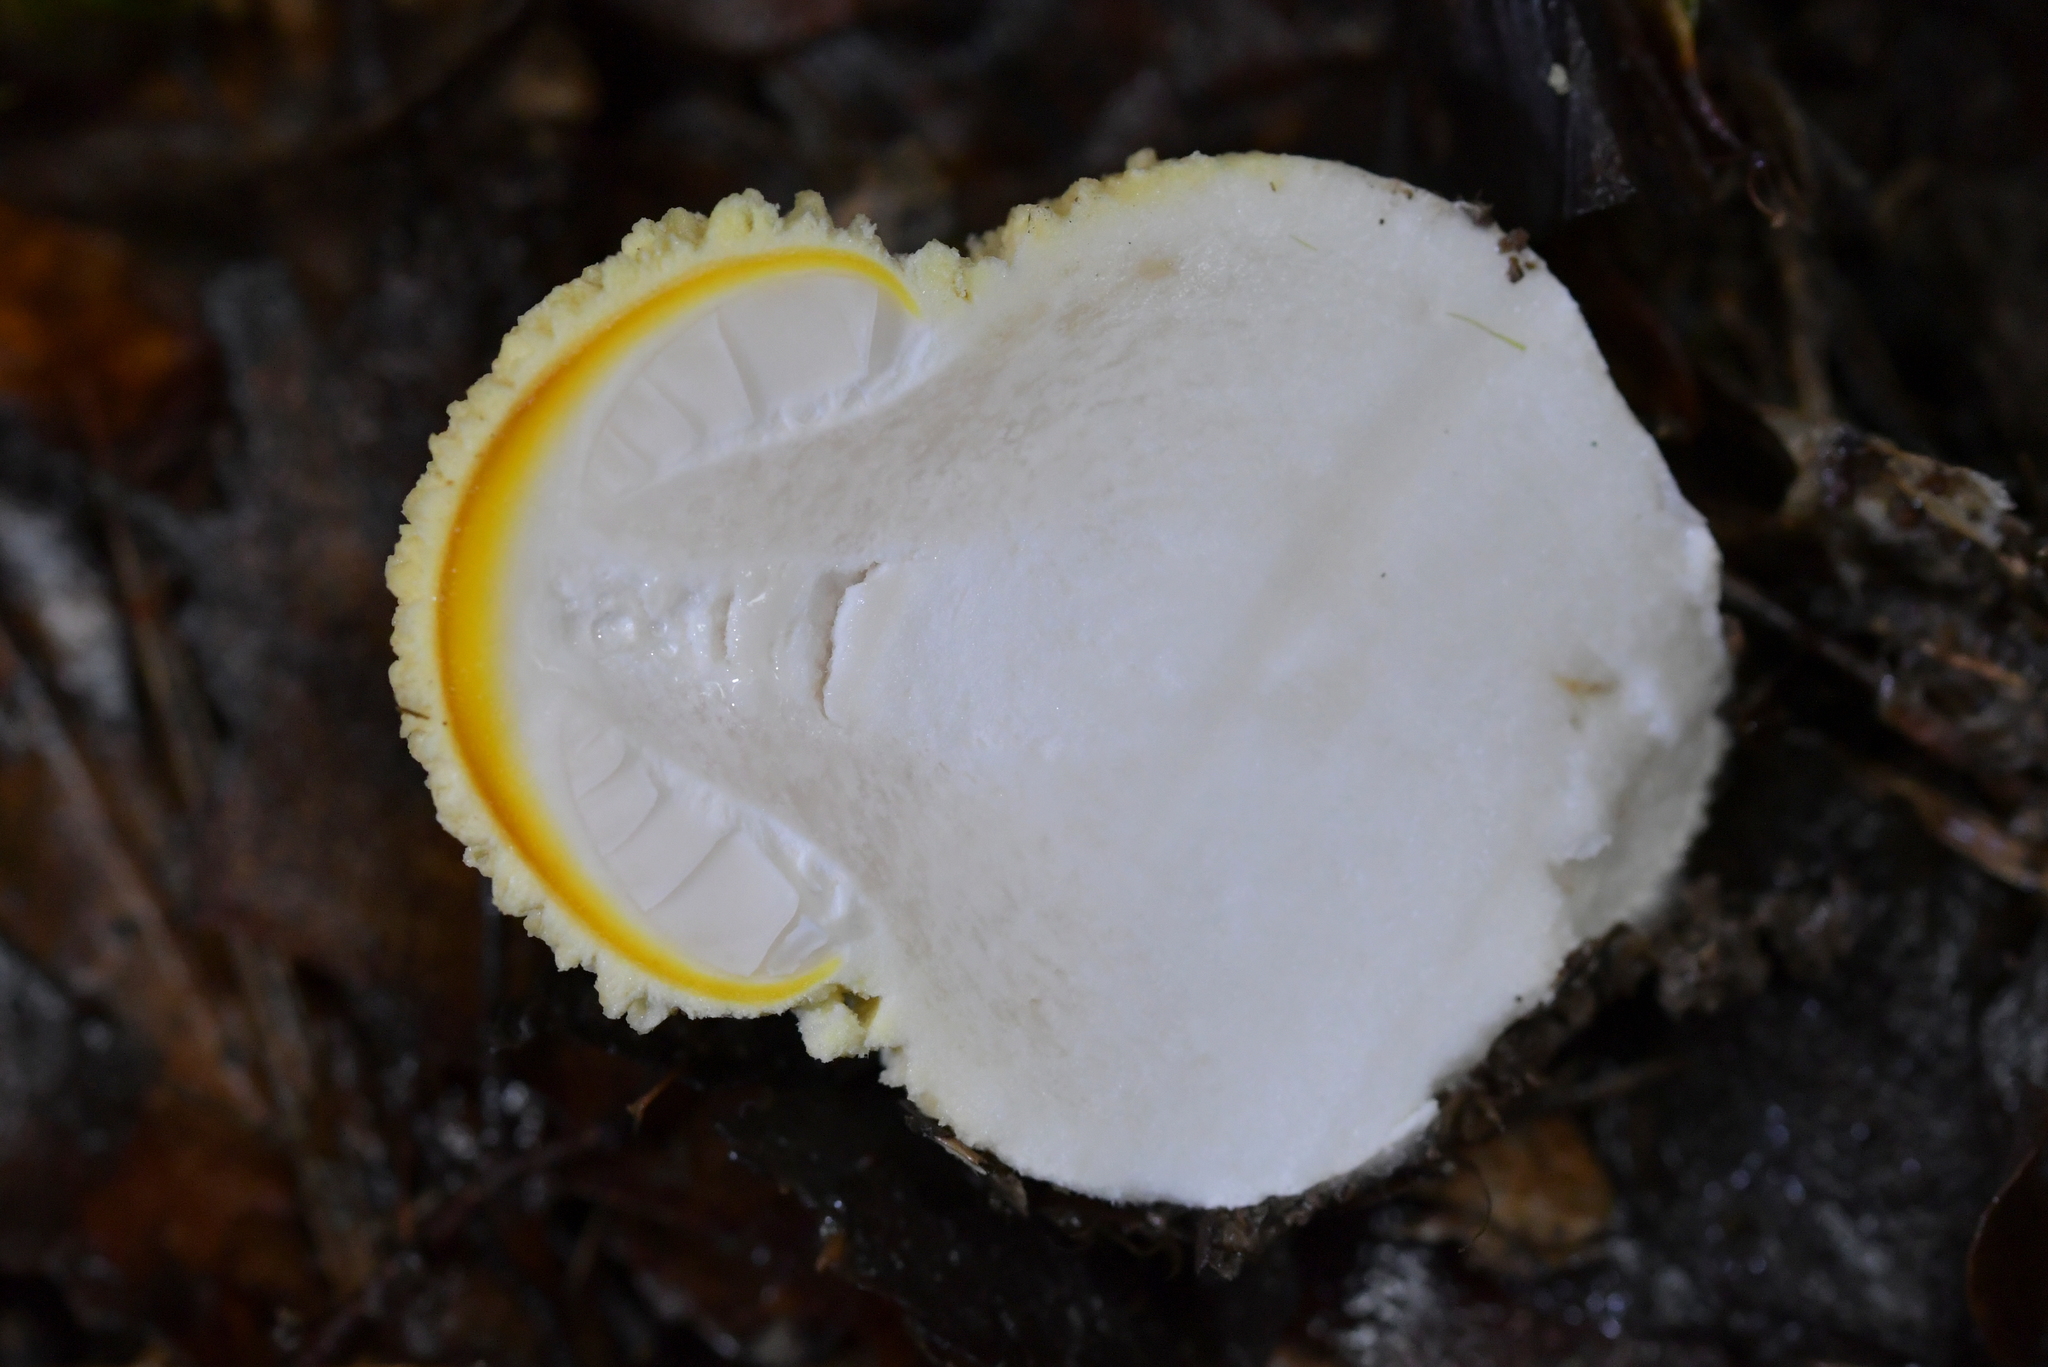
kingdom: Fungi
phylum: Basidiomycota
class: Agaricomycetes
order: Agaricales
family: Amanitaceae
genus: Amanita
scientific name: Amanita muscaria
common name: Fly agaric
